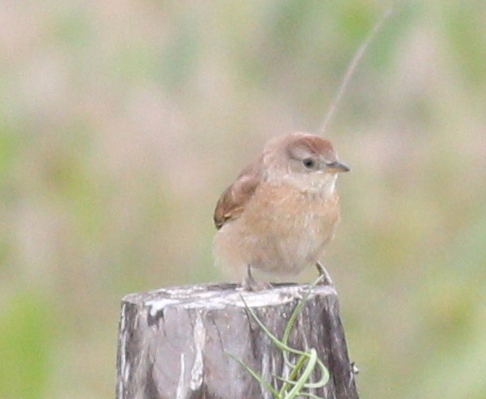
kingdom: Animalia
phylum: Chordata
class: Aves
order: Passeriformes
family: Furnariidae
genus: Phacellodomus
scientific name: Phacellodomus striaticollis
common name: Freckle-breasted thornbird
